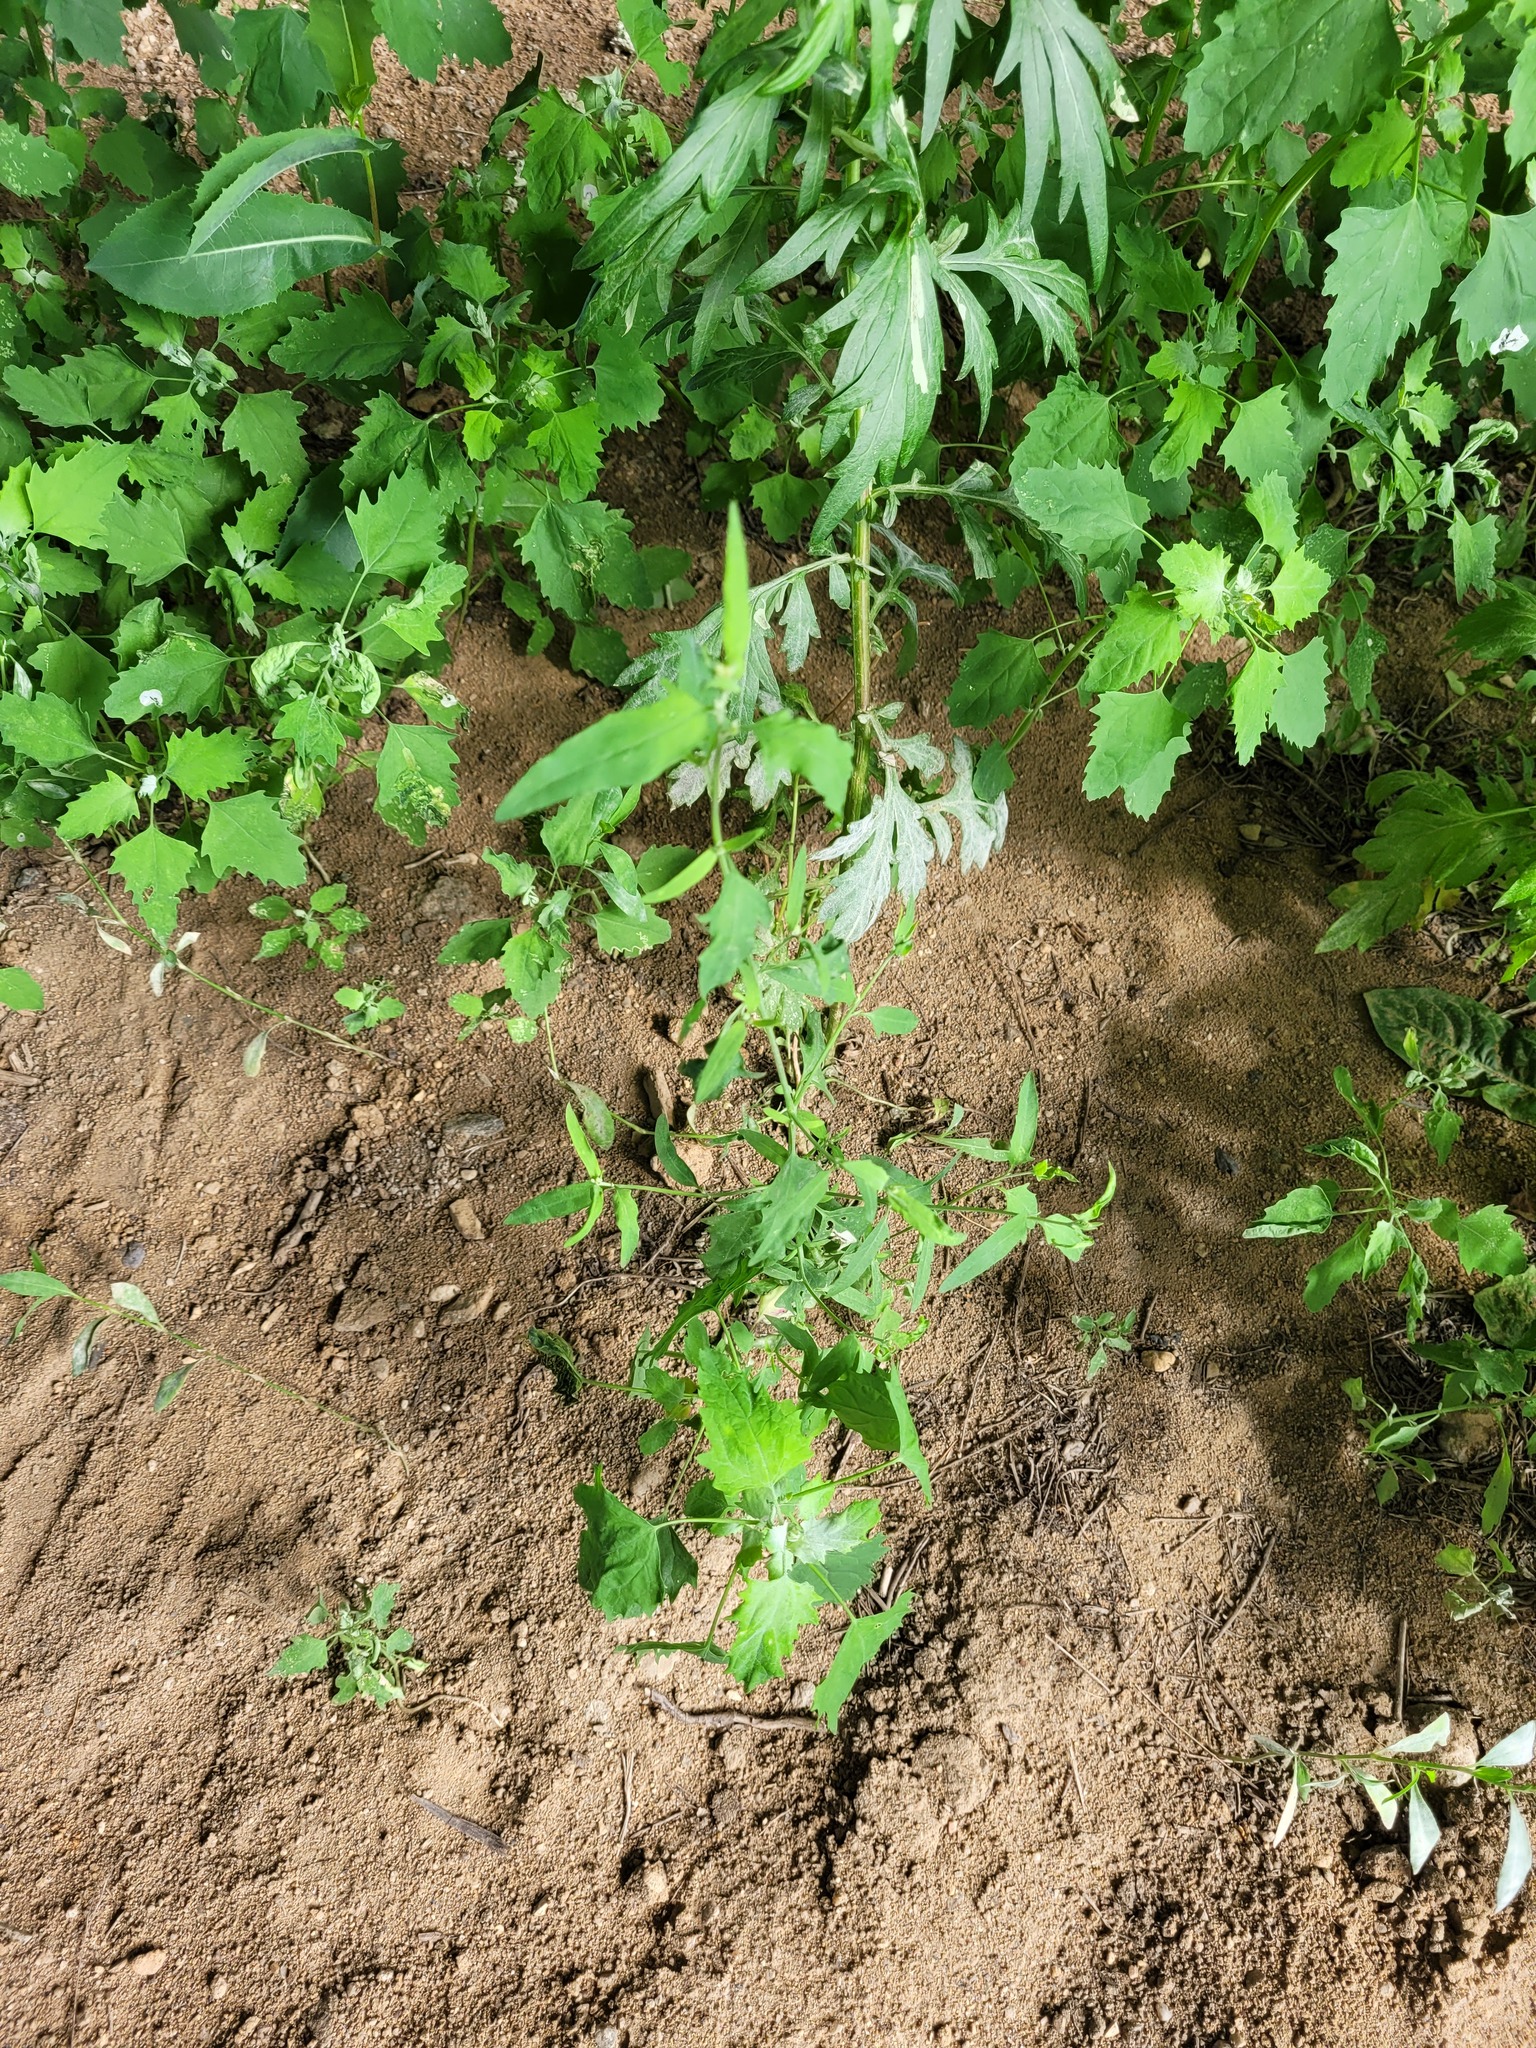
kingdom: Plantae
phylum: Tracheophyta
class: Magnoliopsida
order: Caryophyllales
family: Amaranthaceae
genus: Atriplex
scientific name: Atriplex patula
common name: Common orache
